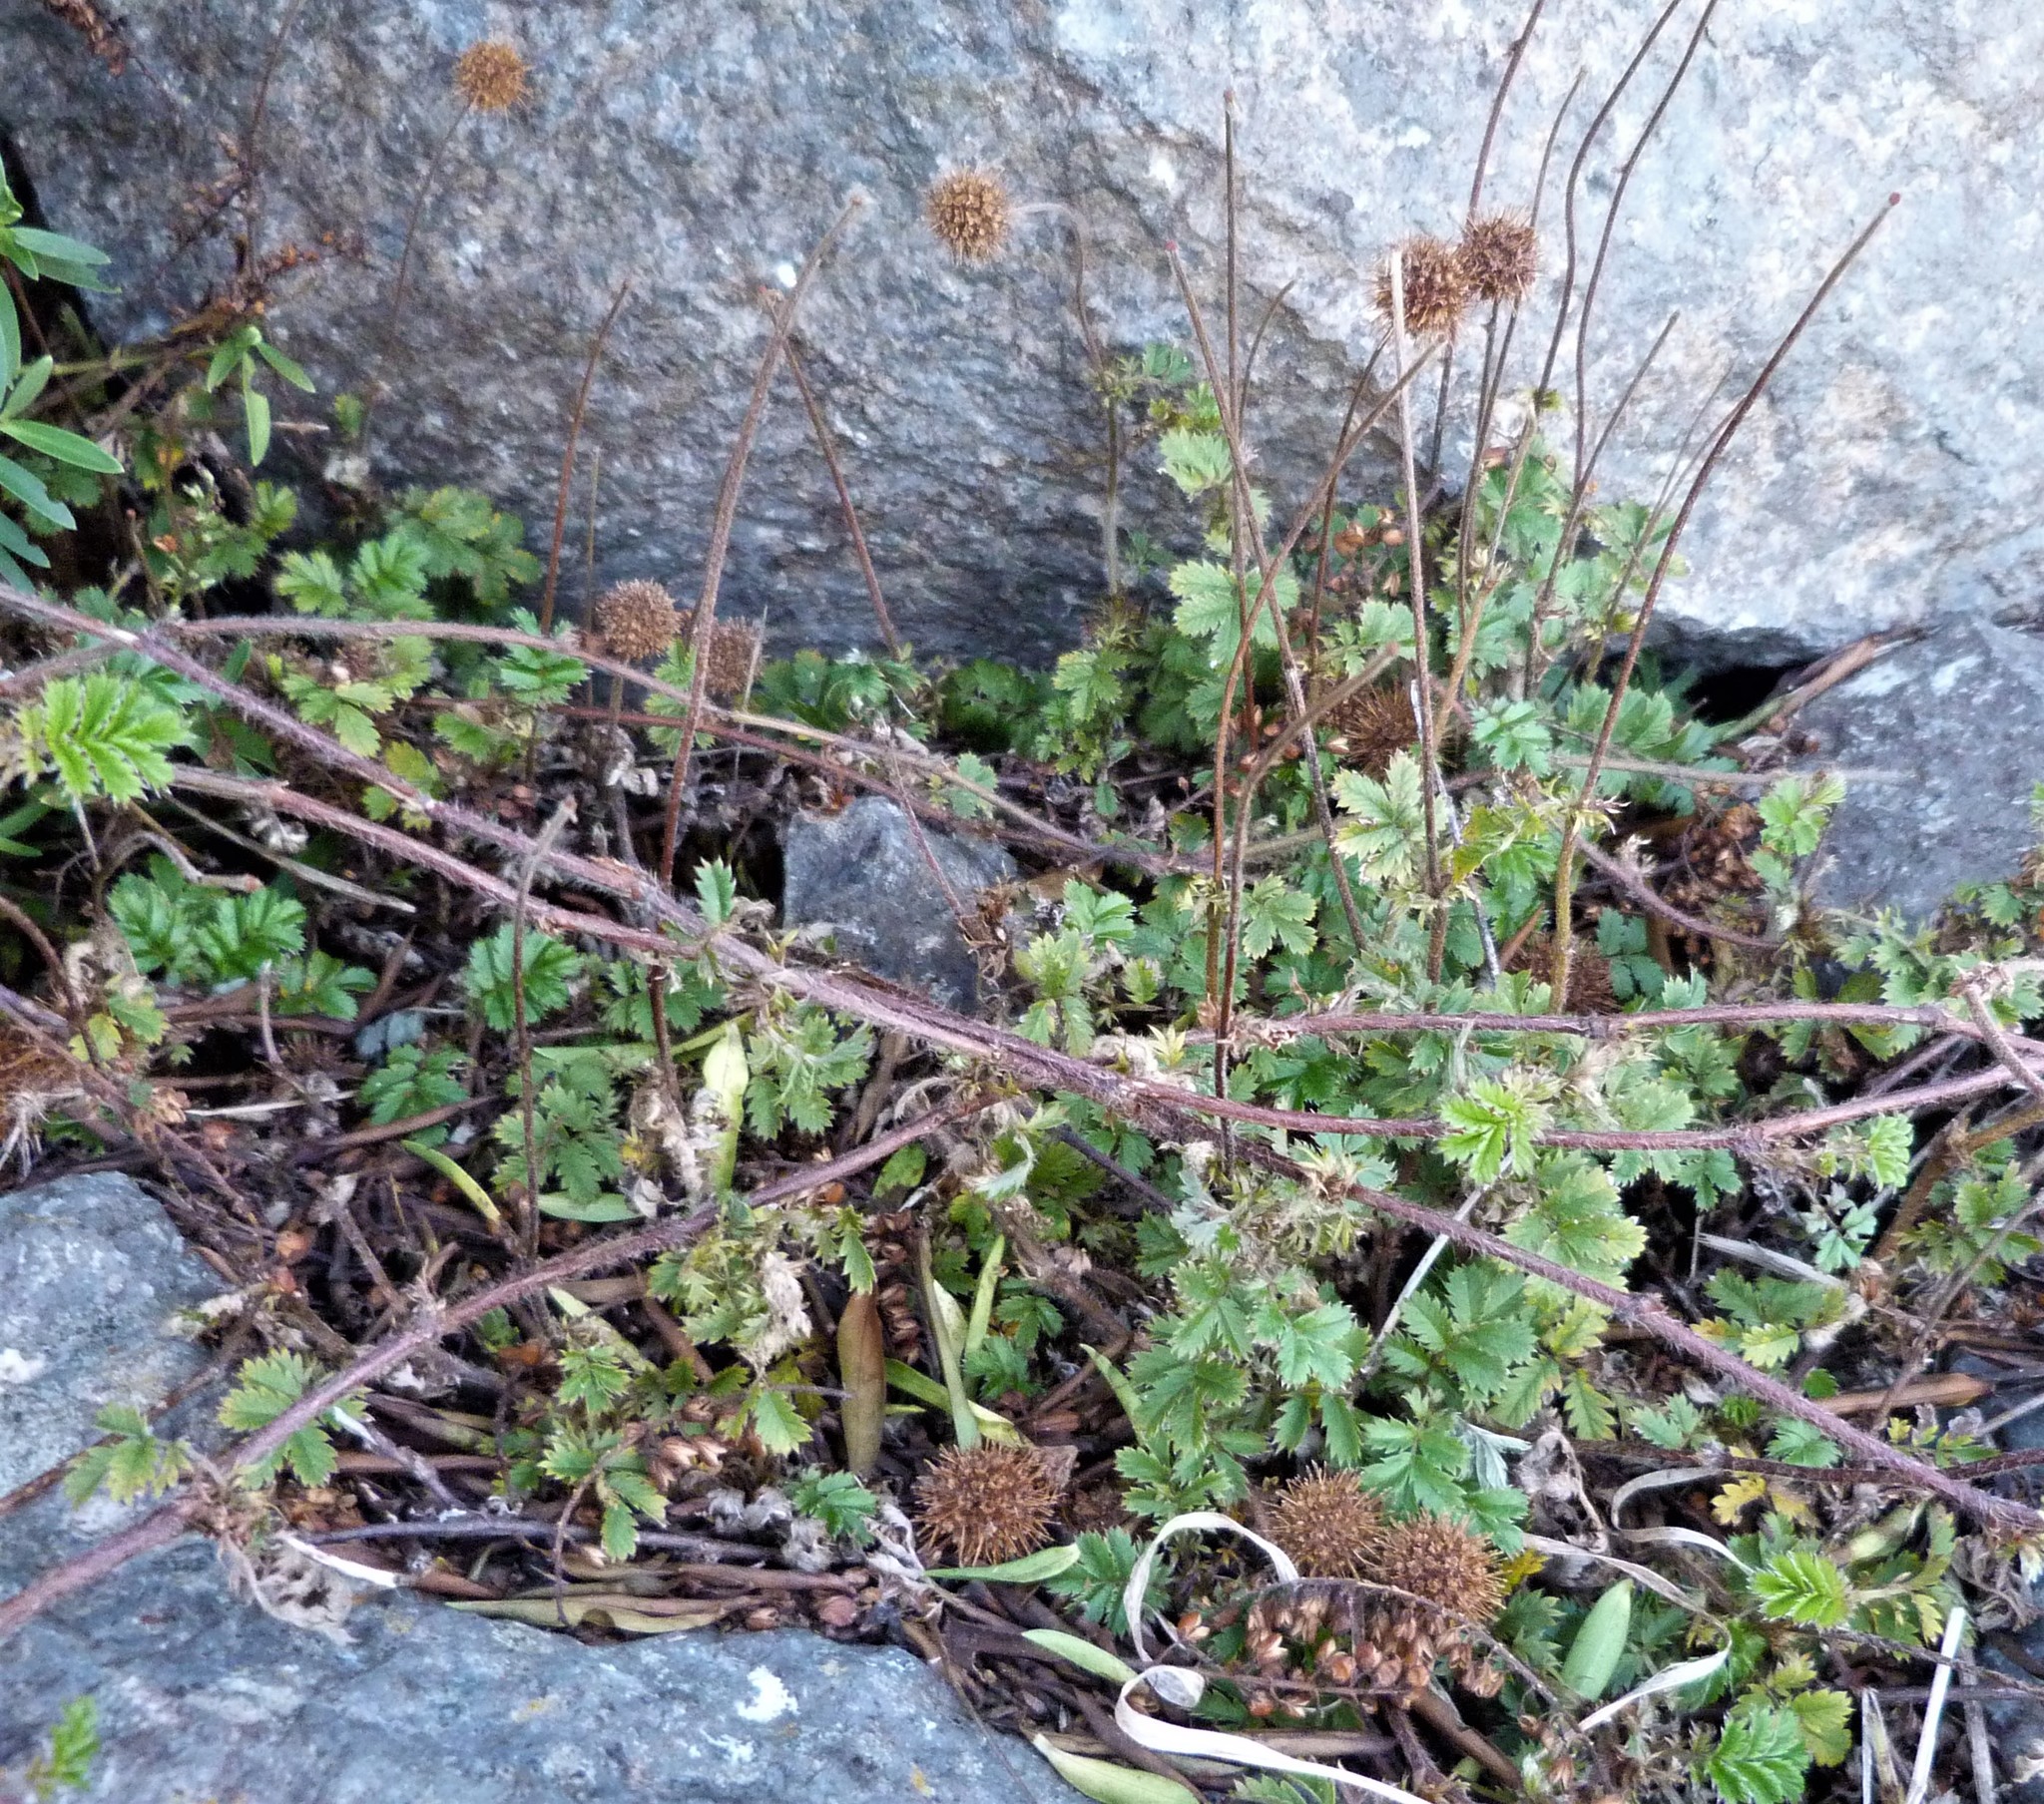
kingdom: Plantae
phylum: Tracheophyta
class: Magnoliopsida
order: Rosales
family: Rosaceae
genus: Acaena
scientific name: Acaena anserinifolia
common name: Bronze pirri-pirri-bur
